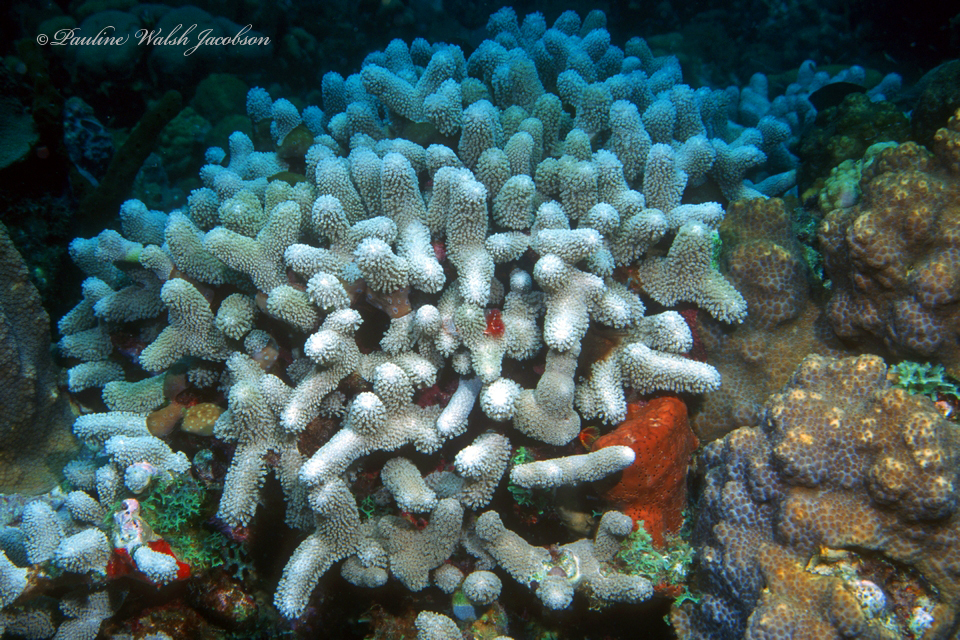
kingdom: Animalia
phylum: Cnidaria
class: Anthozoa
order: Scleractinia
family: Poritidae
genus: Porites
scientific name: Porites porites
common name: Finger coral
